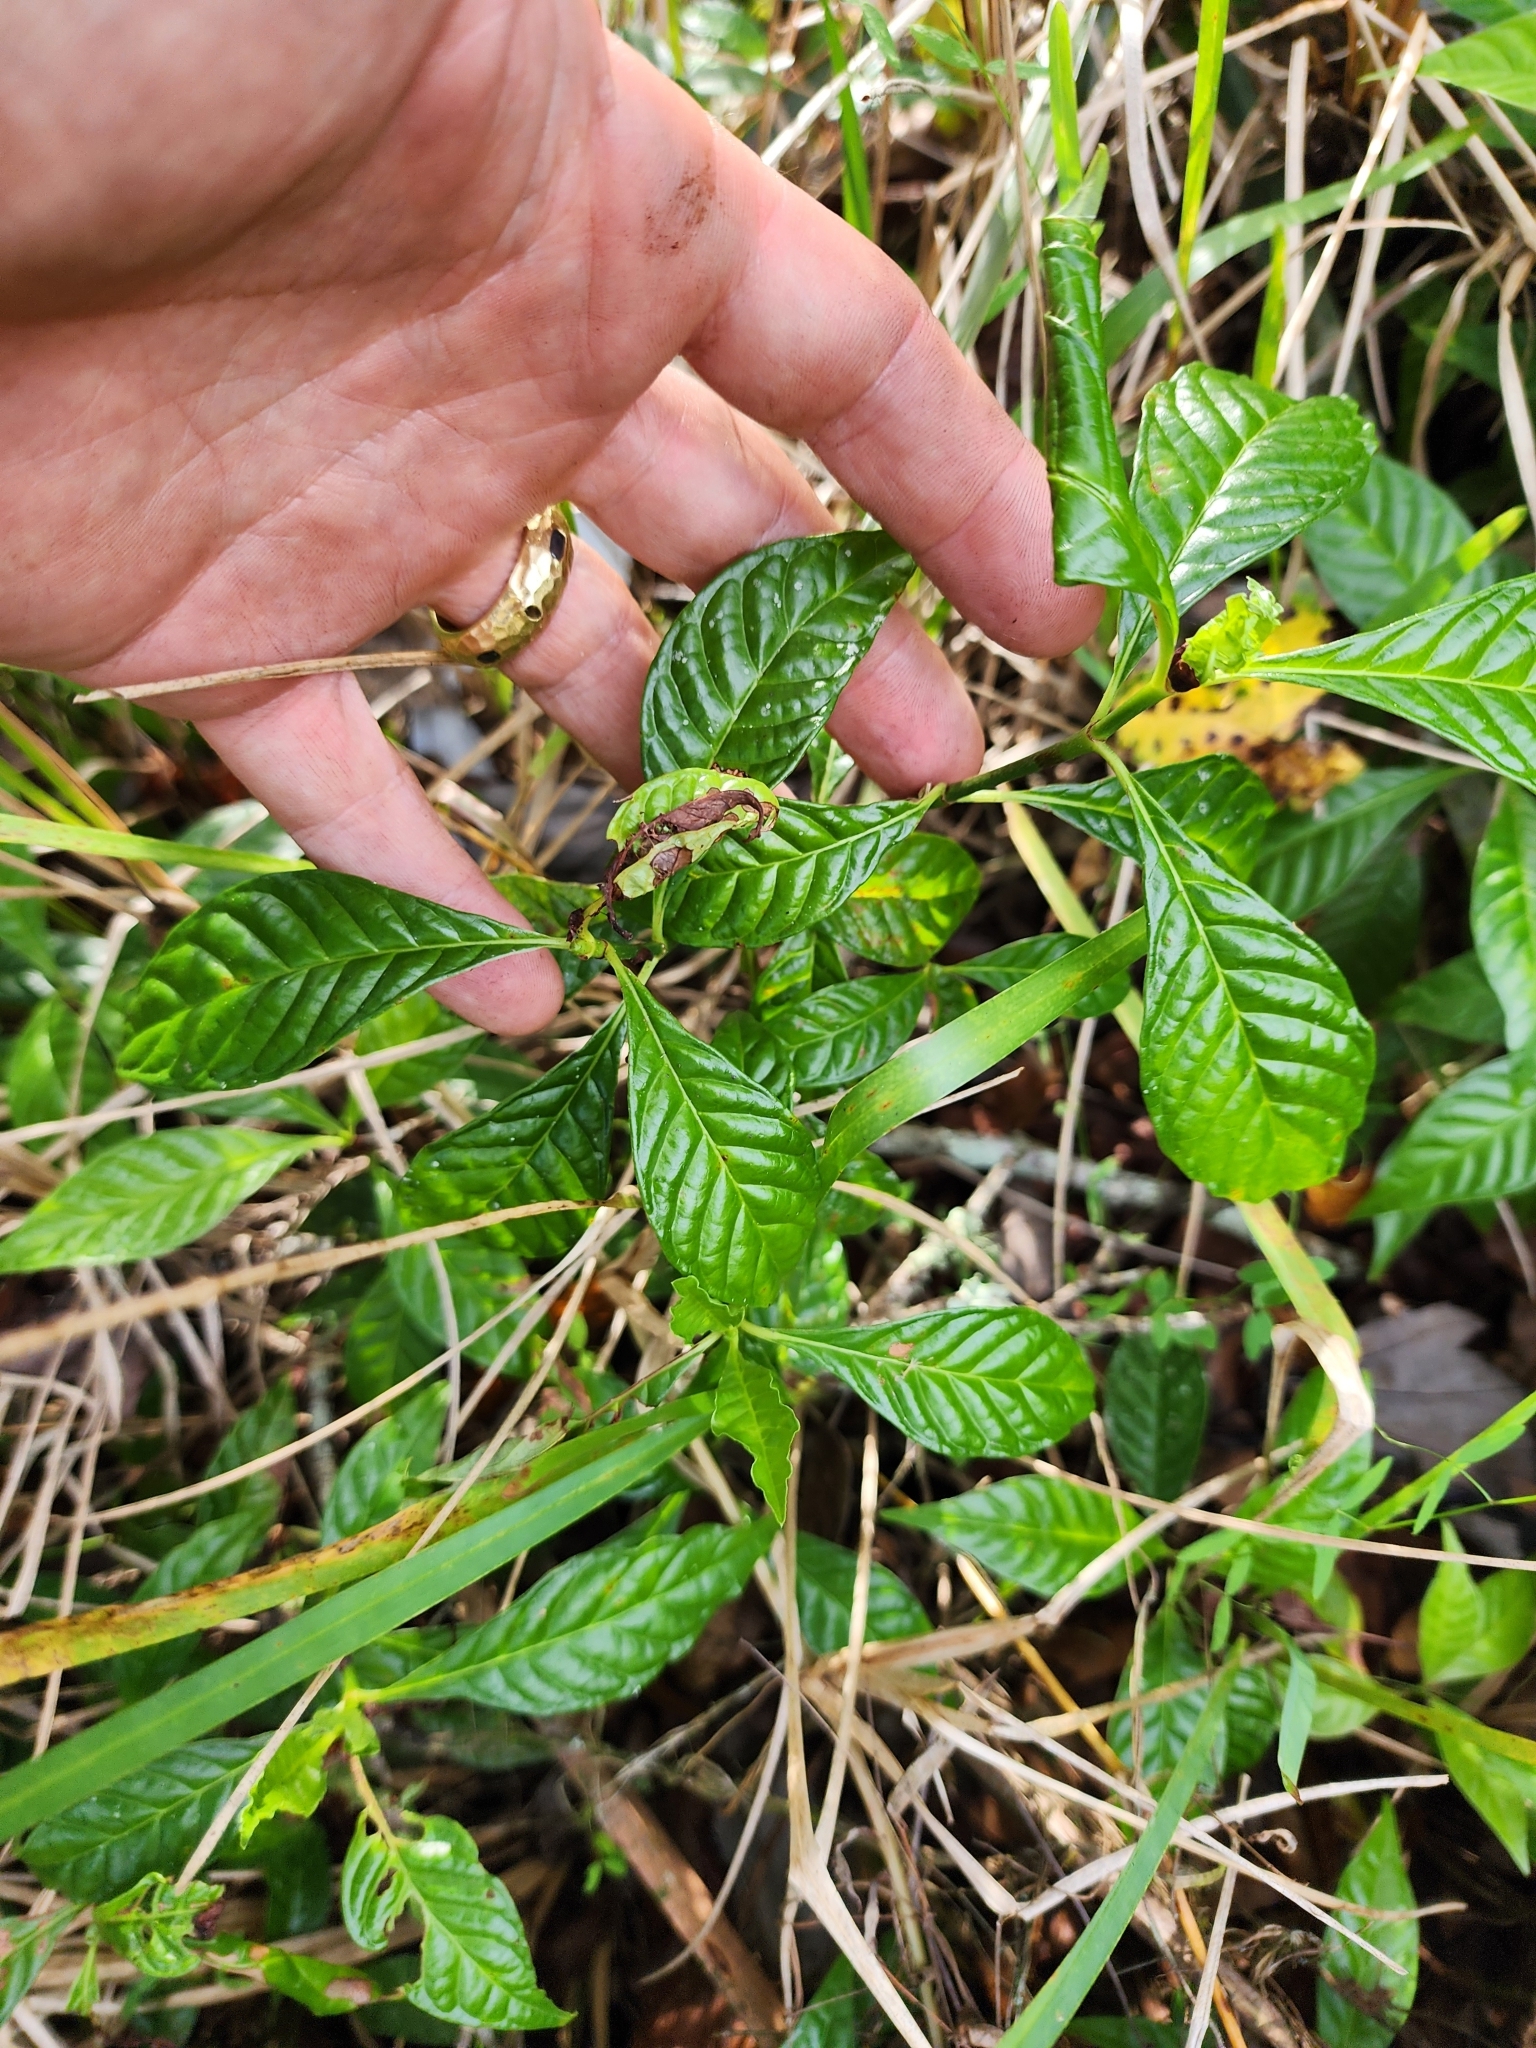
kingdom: Plantae
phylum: Tracheophyta
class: Magnoliopsida
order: Gentianales
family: Rubiaceae
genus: Psychotria
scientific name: Psychotria nervosa
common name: Bastard cankerberry
